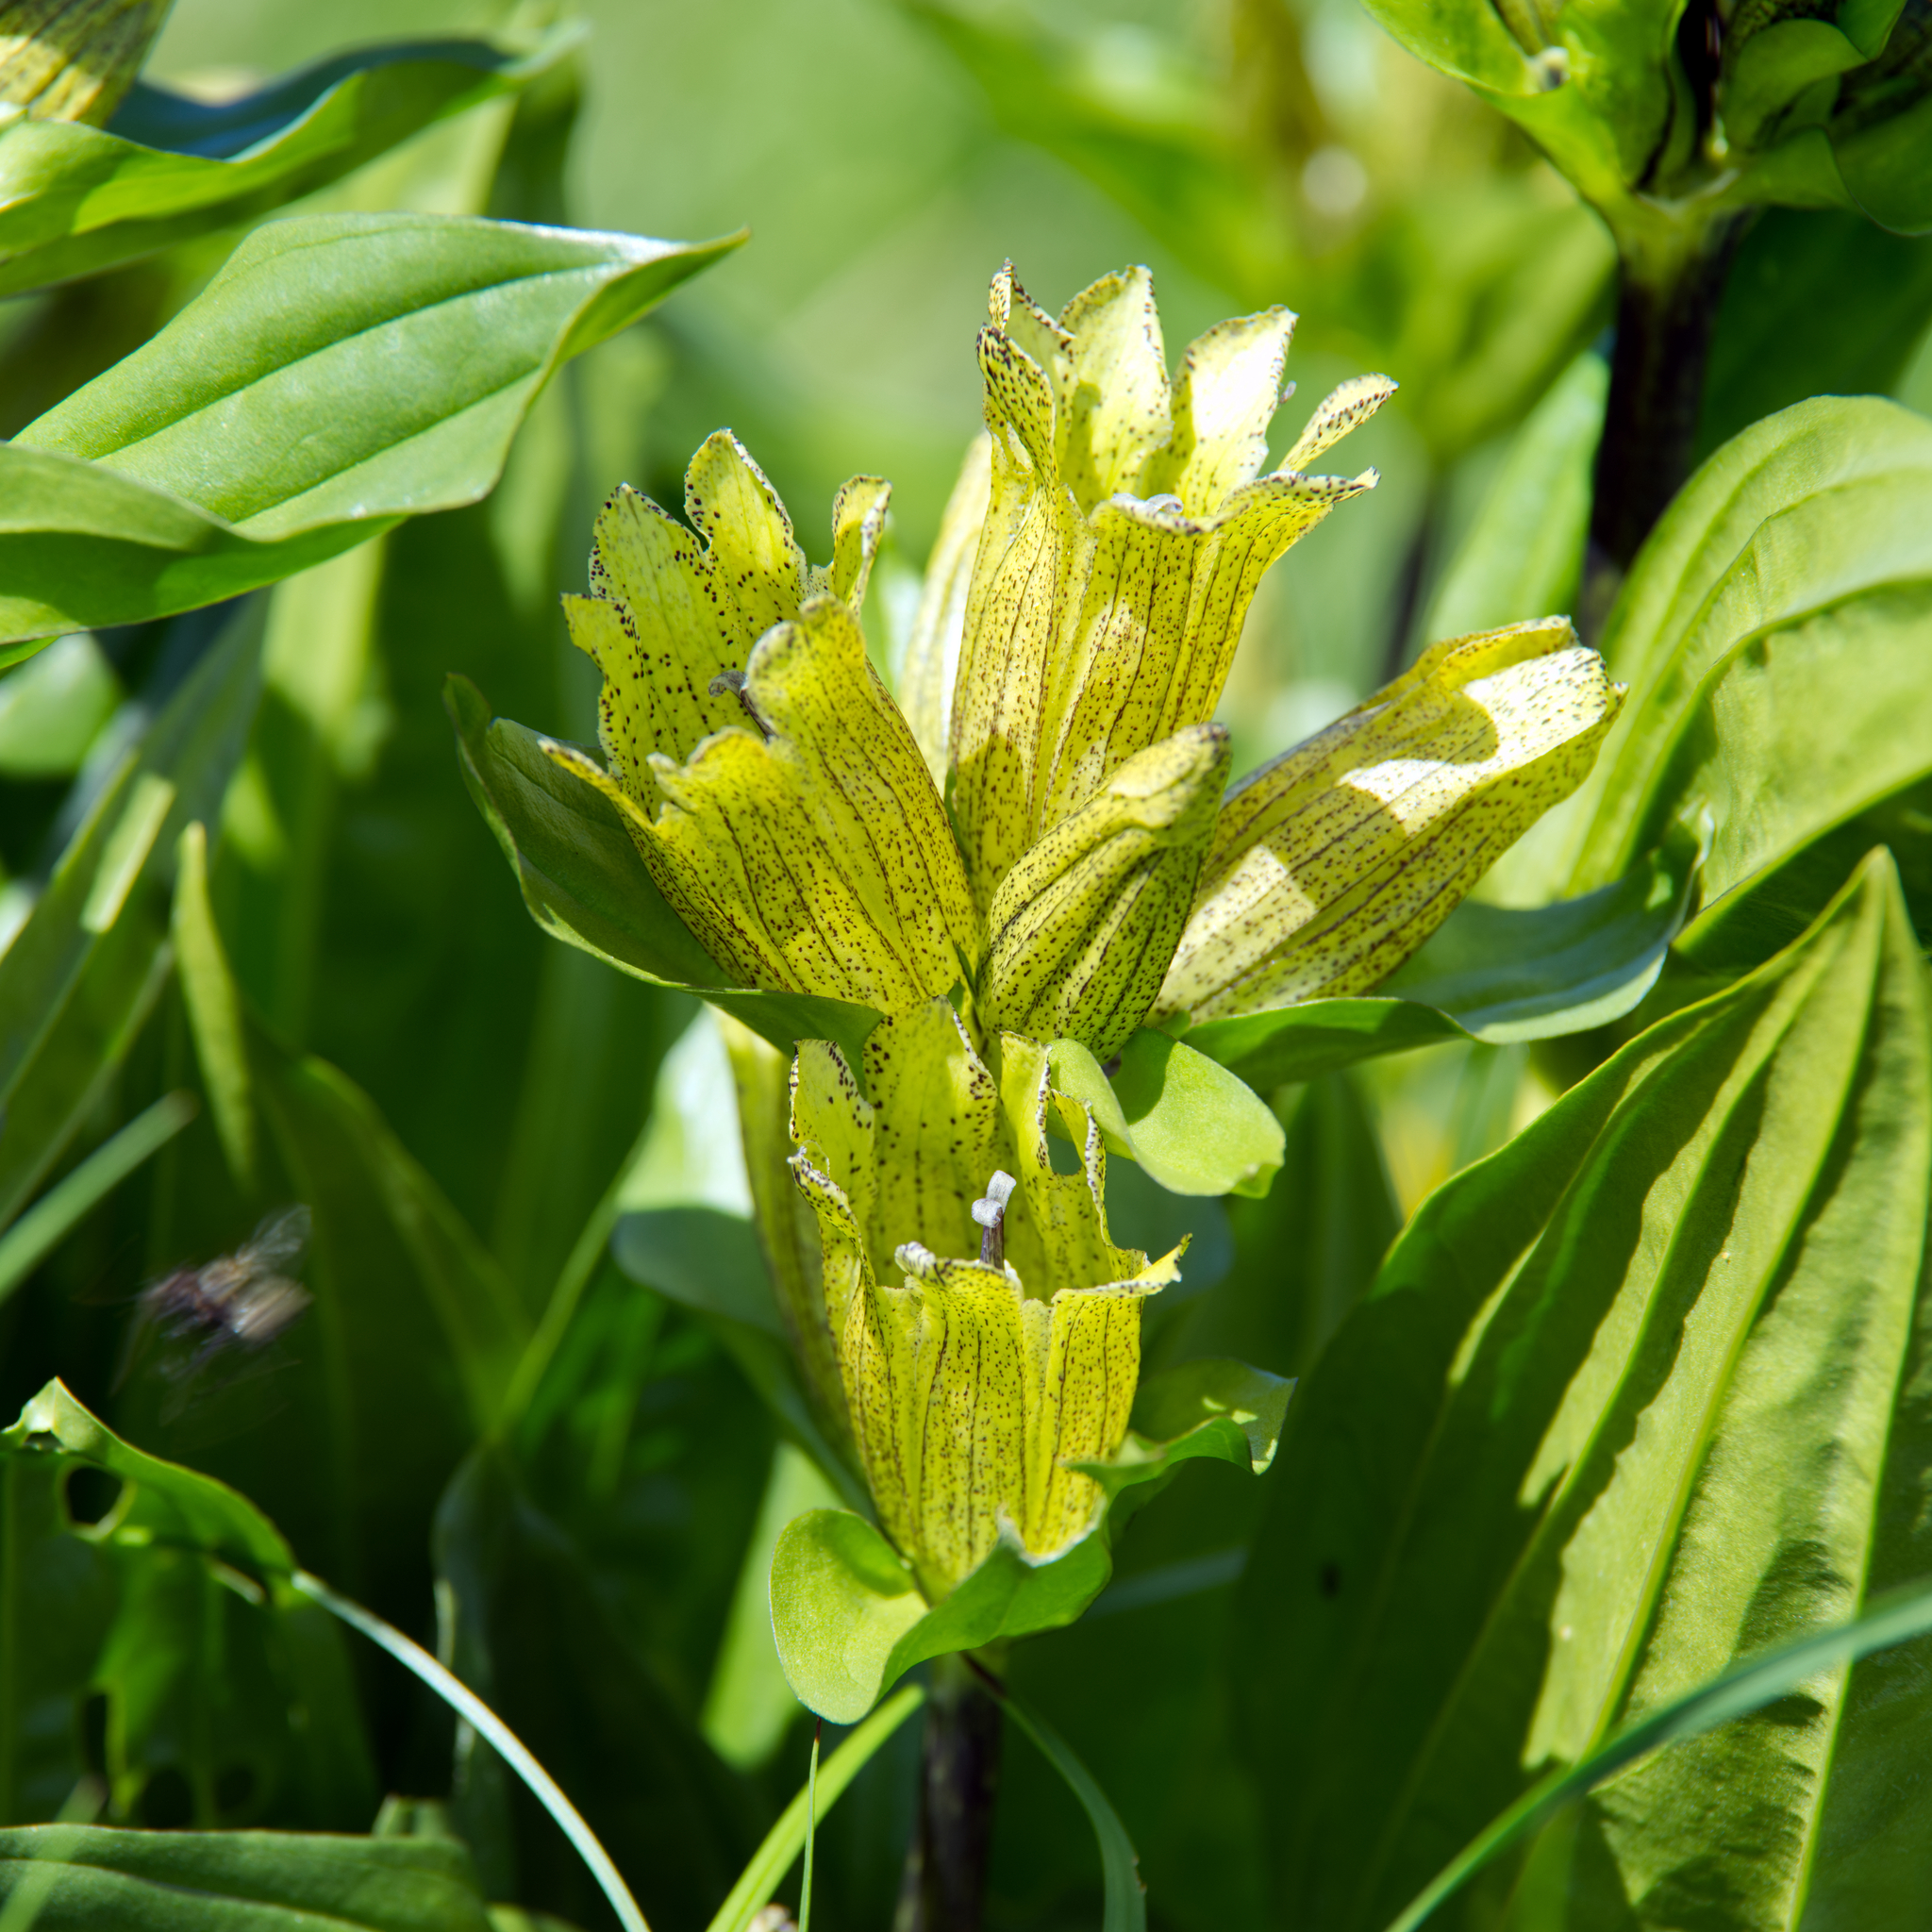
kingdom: Plantae
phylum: Tracheophyta
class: Magnoliopsida
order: Gentianales
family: Gentianaceae
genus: Gentiana
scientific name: Gentiana punctata
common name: Spotted gentian
